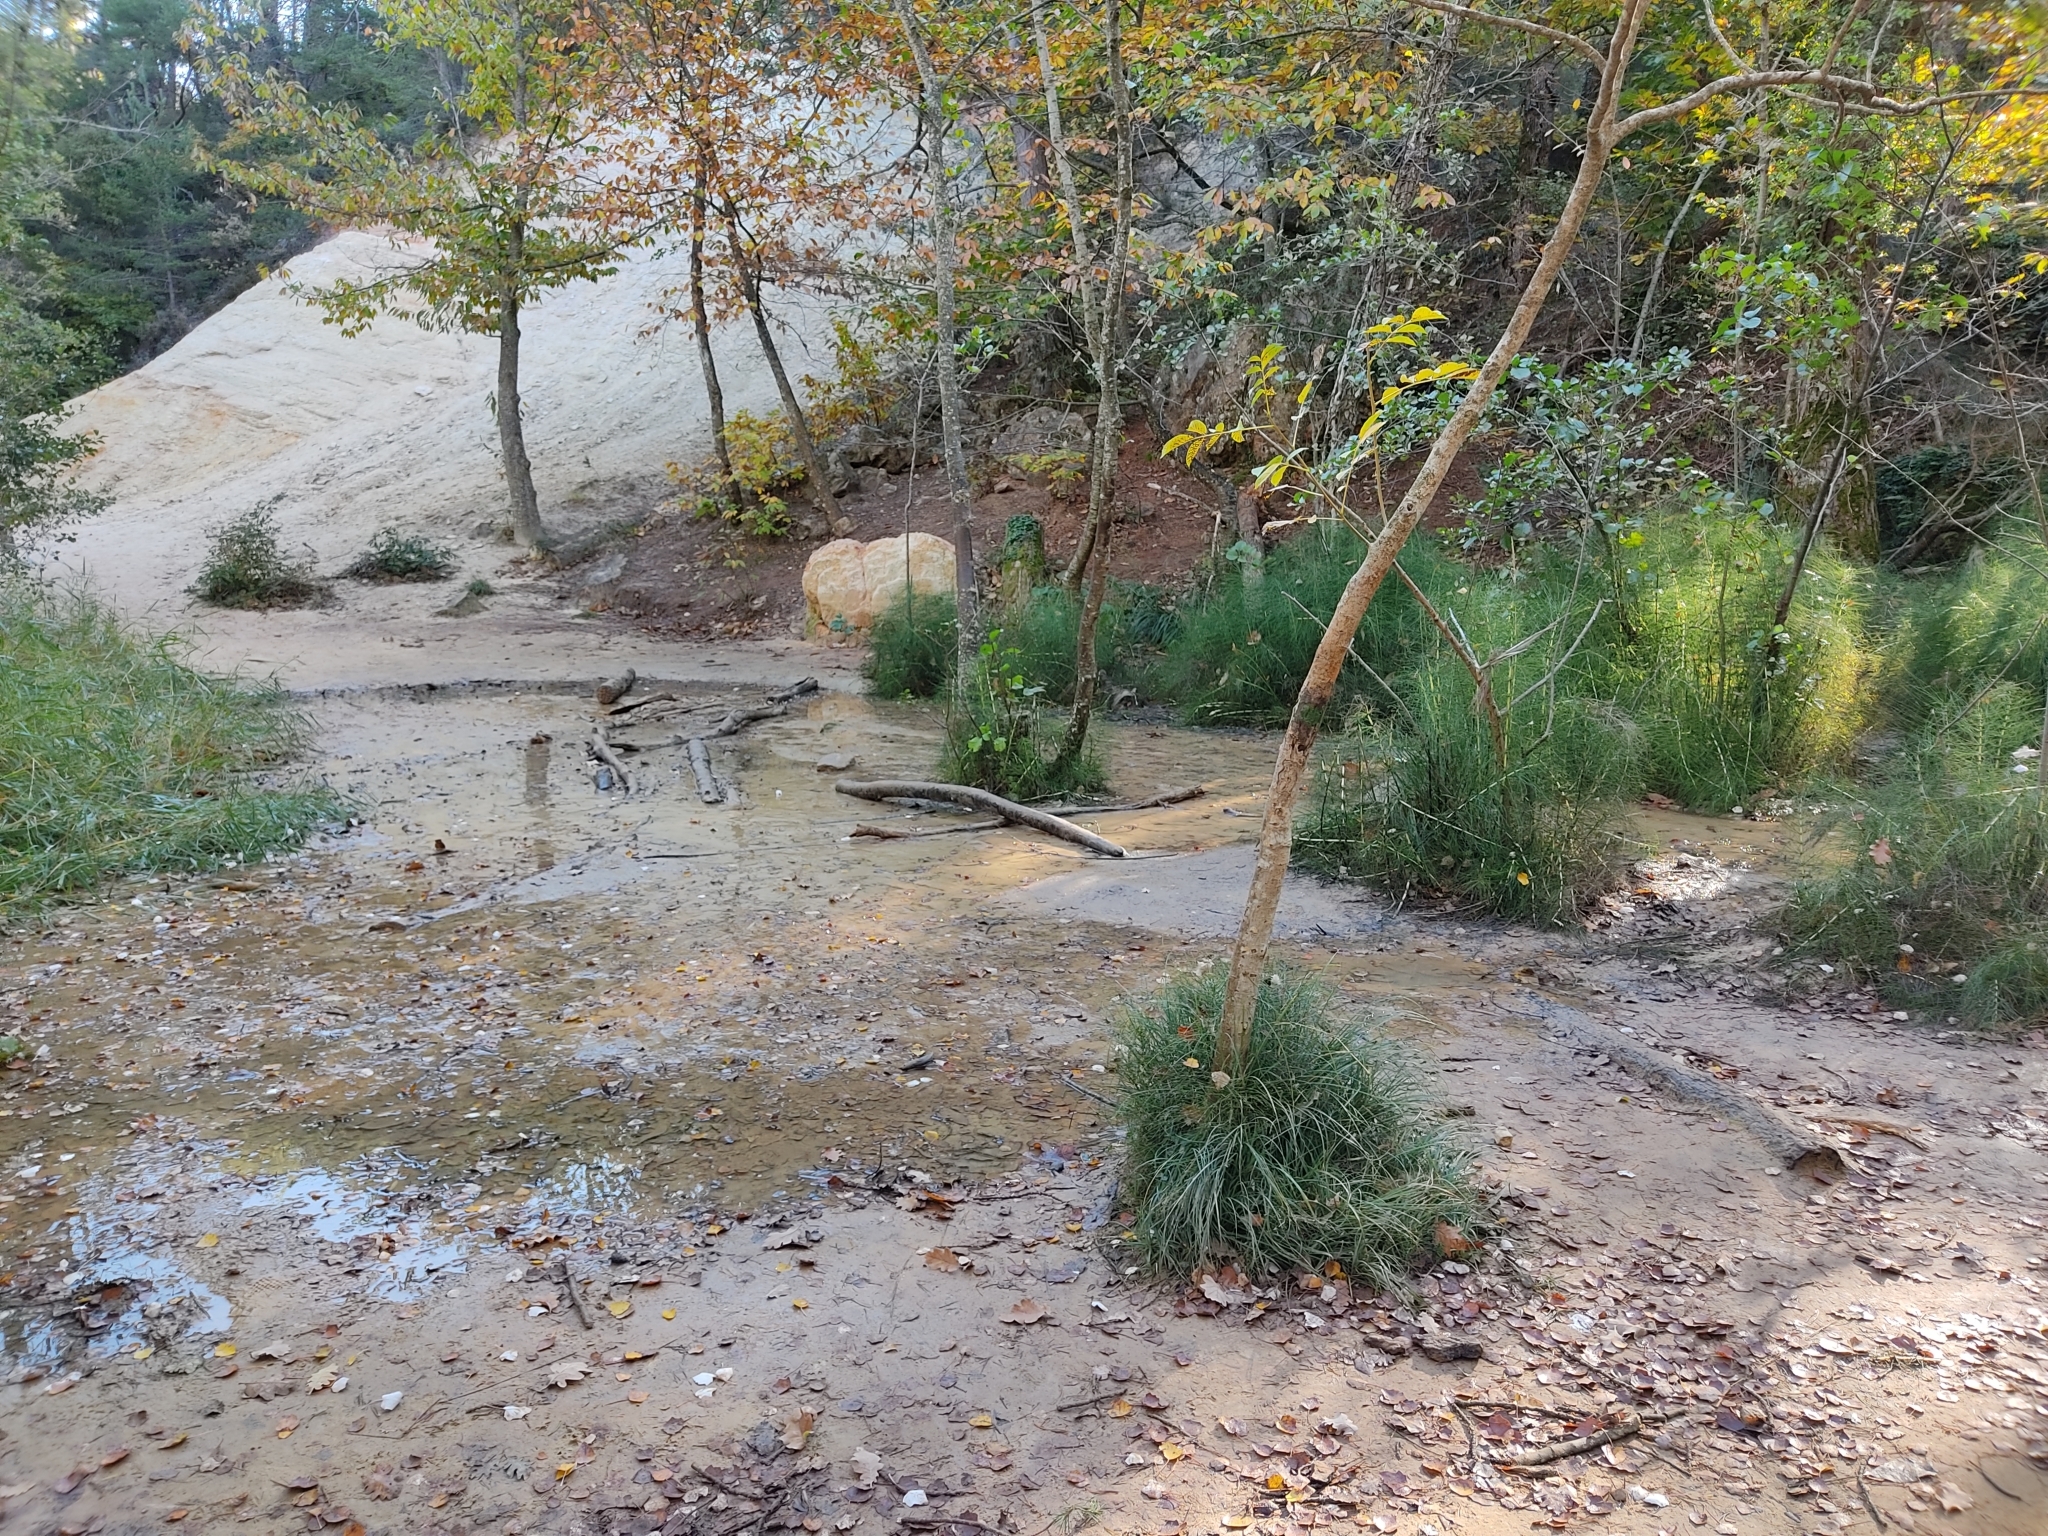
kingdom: Plantae
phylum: Tracheophyta
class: Polypodiopsida
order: Equisetales
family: Equisetaceae
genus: Equisetum
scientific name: Equisetum telmateia
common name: Great horsetail
